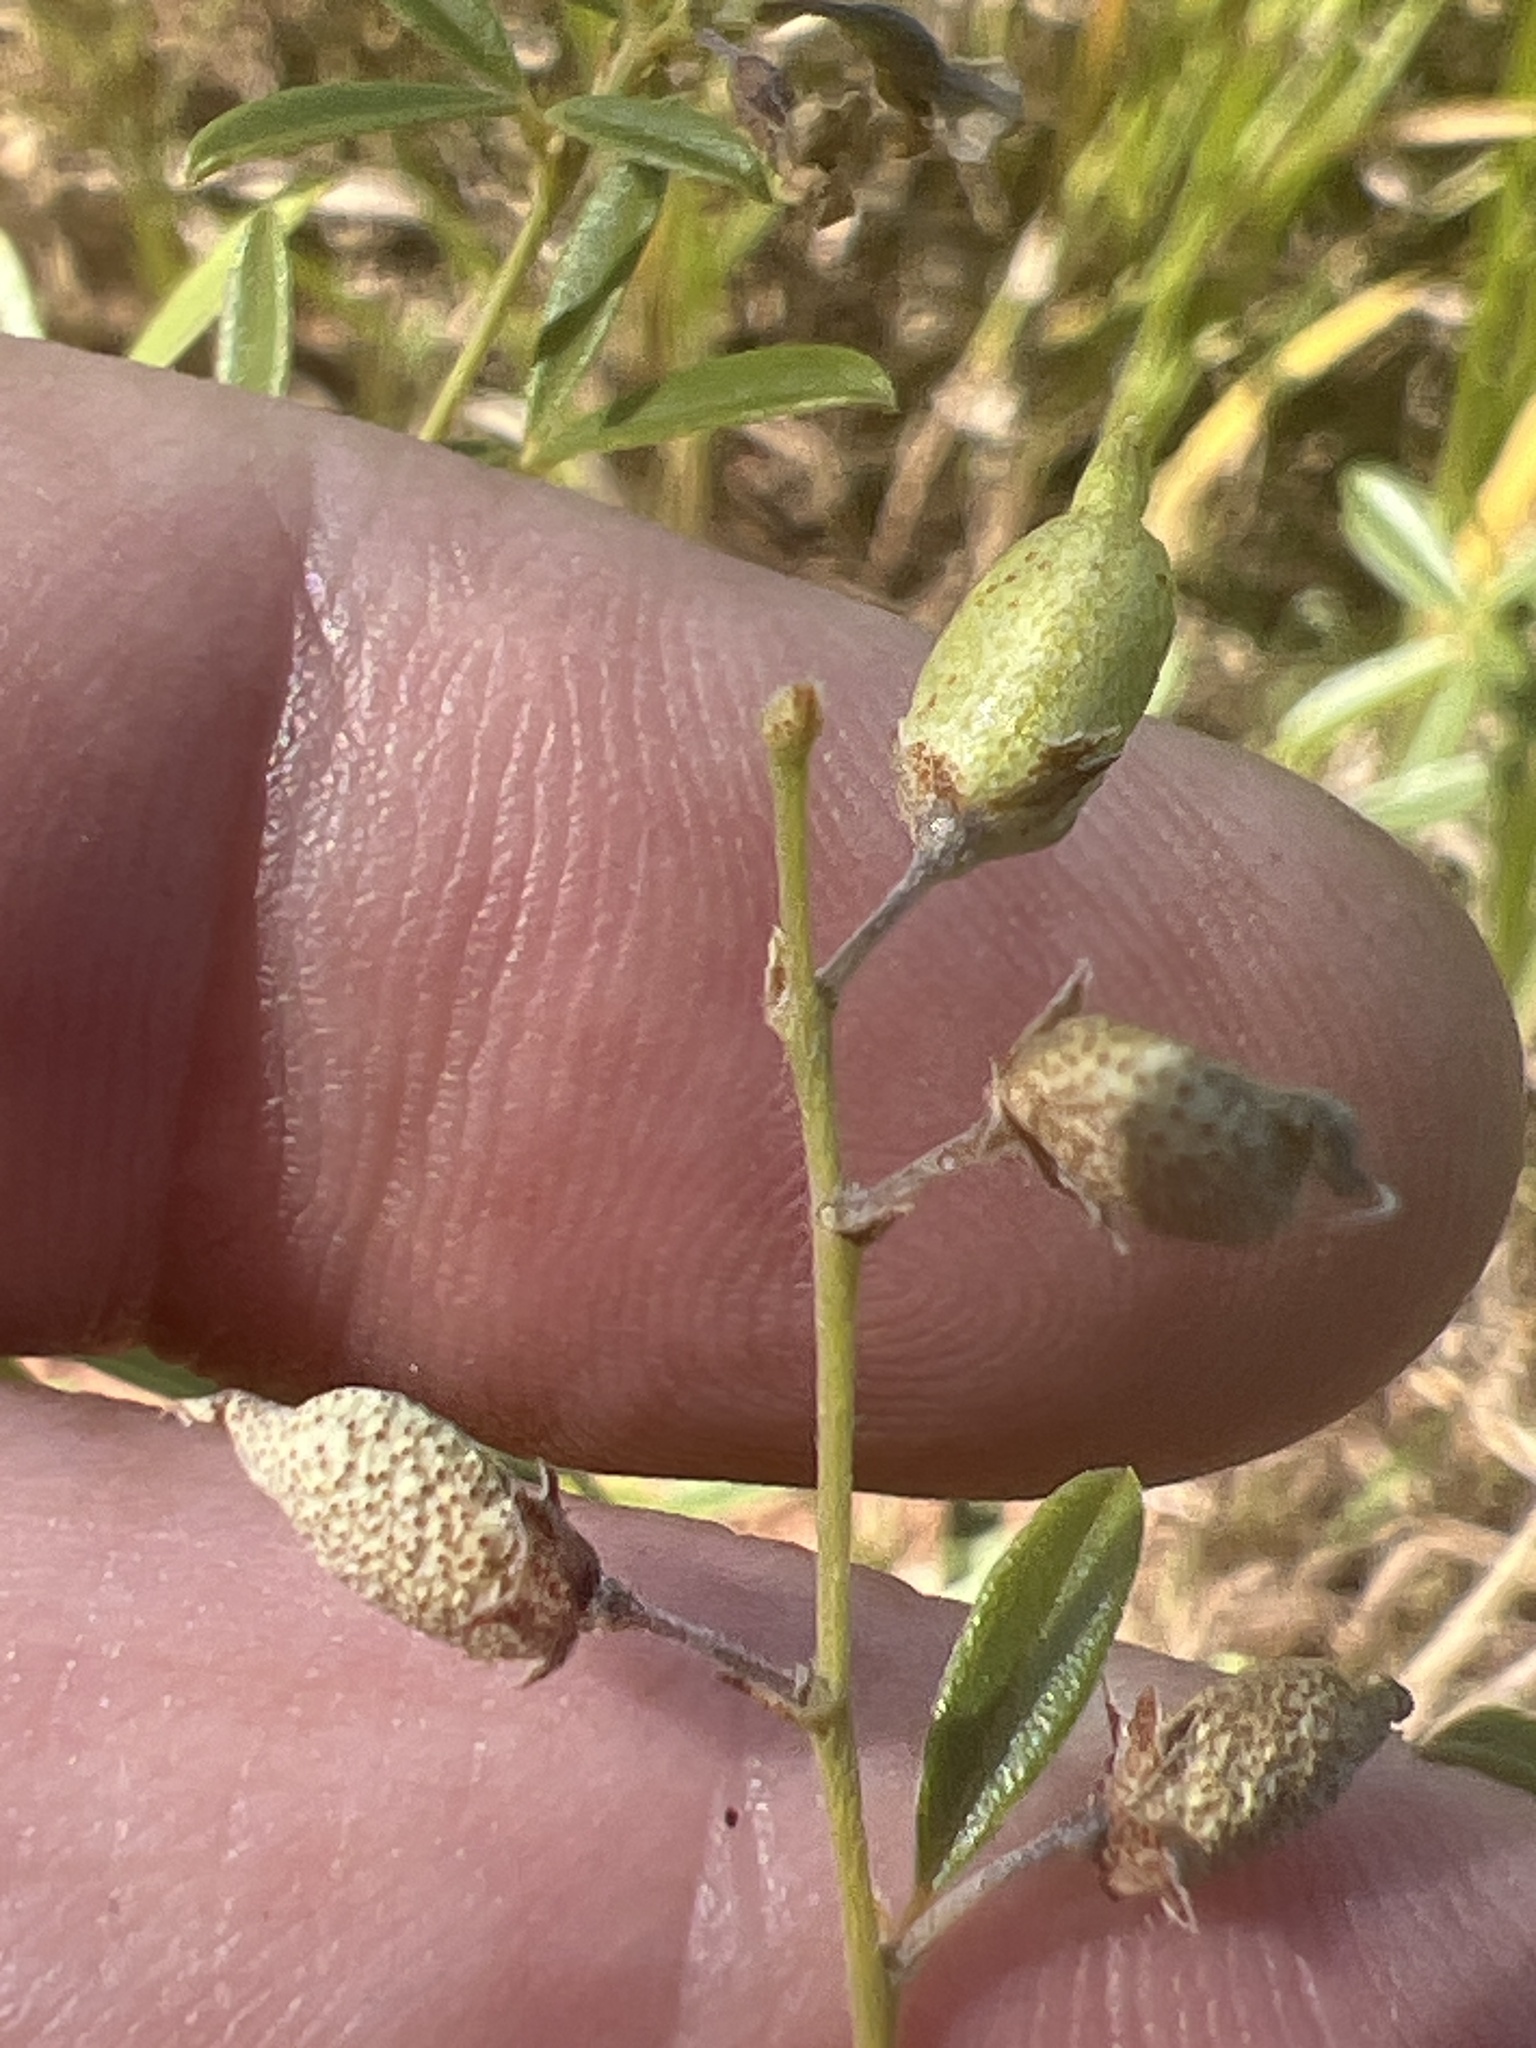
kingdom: Plantae
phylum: Tracheophyta
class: Magnoliopsida
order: Fabales
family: Fabaceae
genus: Pediomelum
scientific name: Pediomelum tenuiflorum
